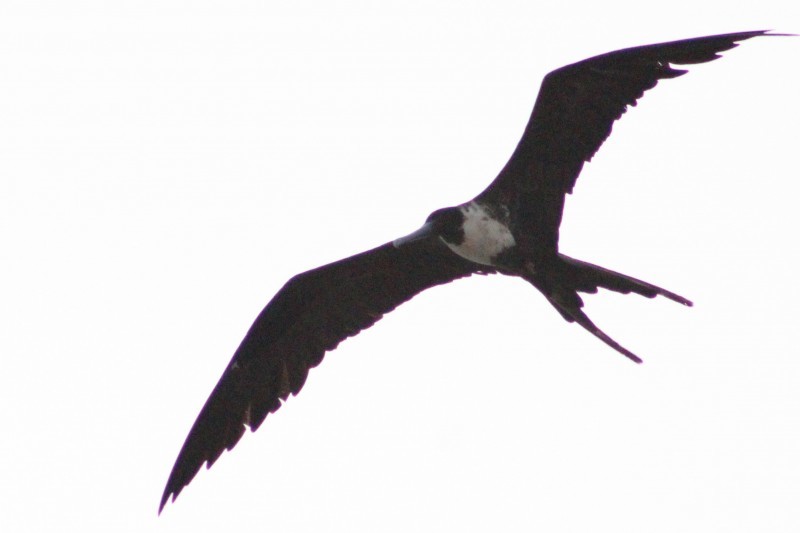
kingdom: Animalia
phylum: Chordata
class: Aves
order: Suliformes
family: Fregatidae
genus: Fregata
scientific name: Fregata magnificens
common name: Magnificent frigatebird
